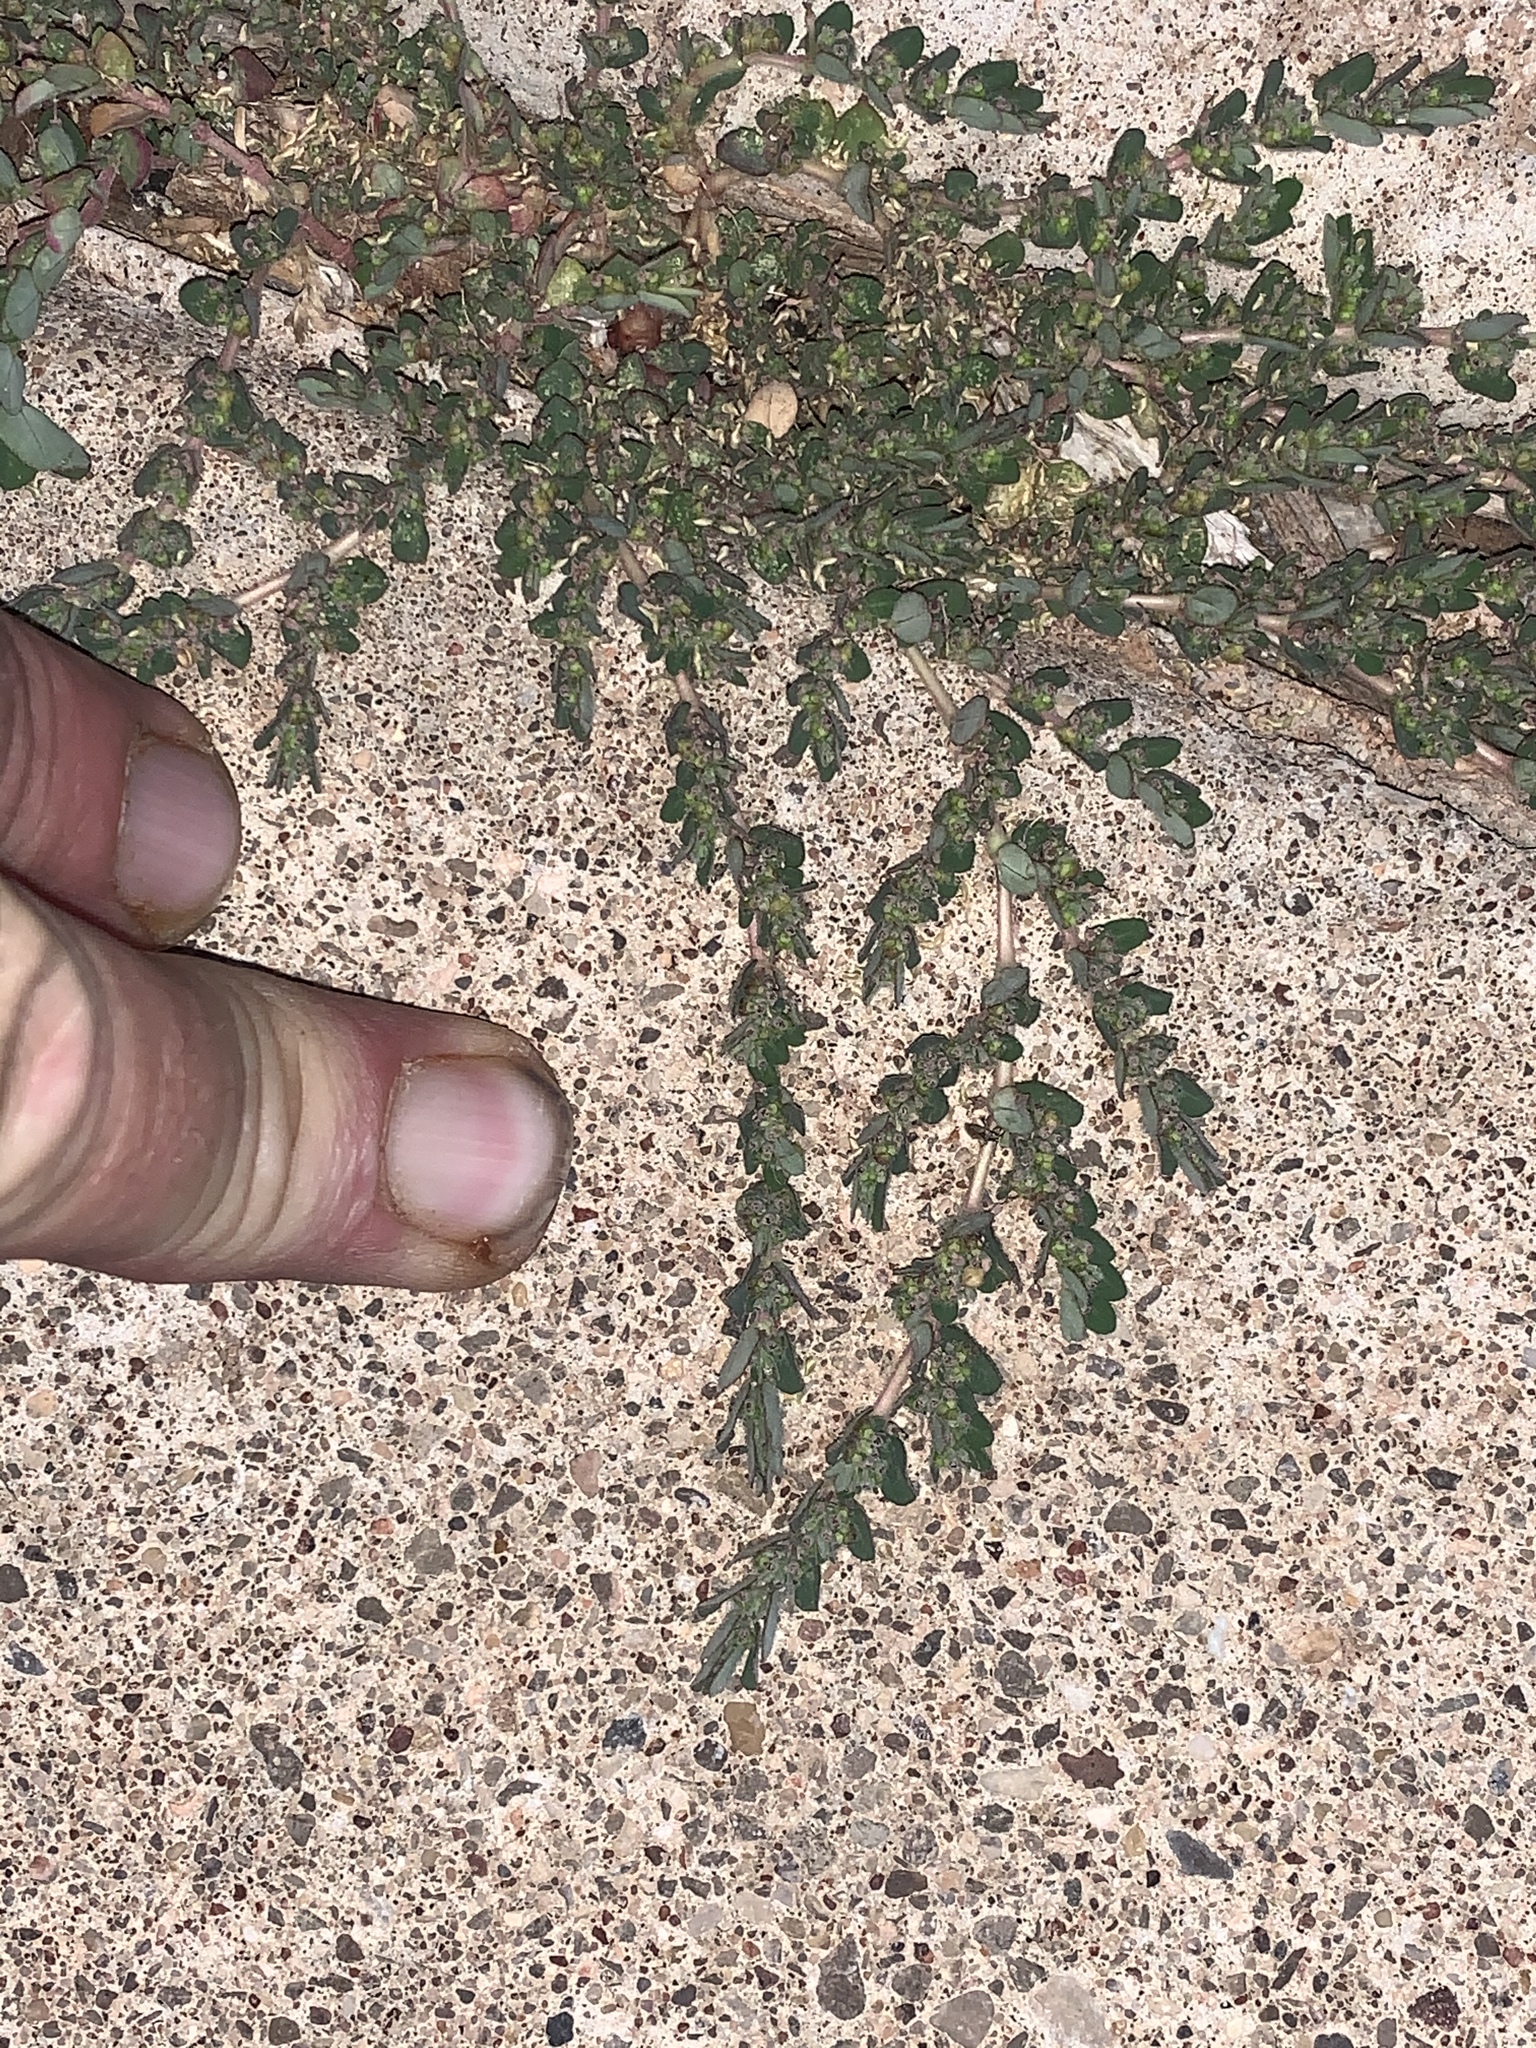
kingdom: Plantae
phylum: Tracheophyta
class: Magnoliopsida
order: Malpighiales
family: Euphorbiaceae
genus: Euphorbia
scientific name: Euphorbia prostrata
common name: Prostrate sandmat
